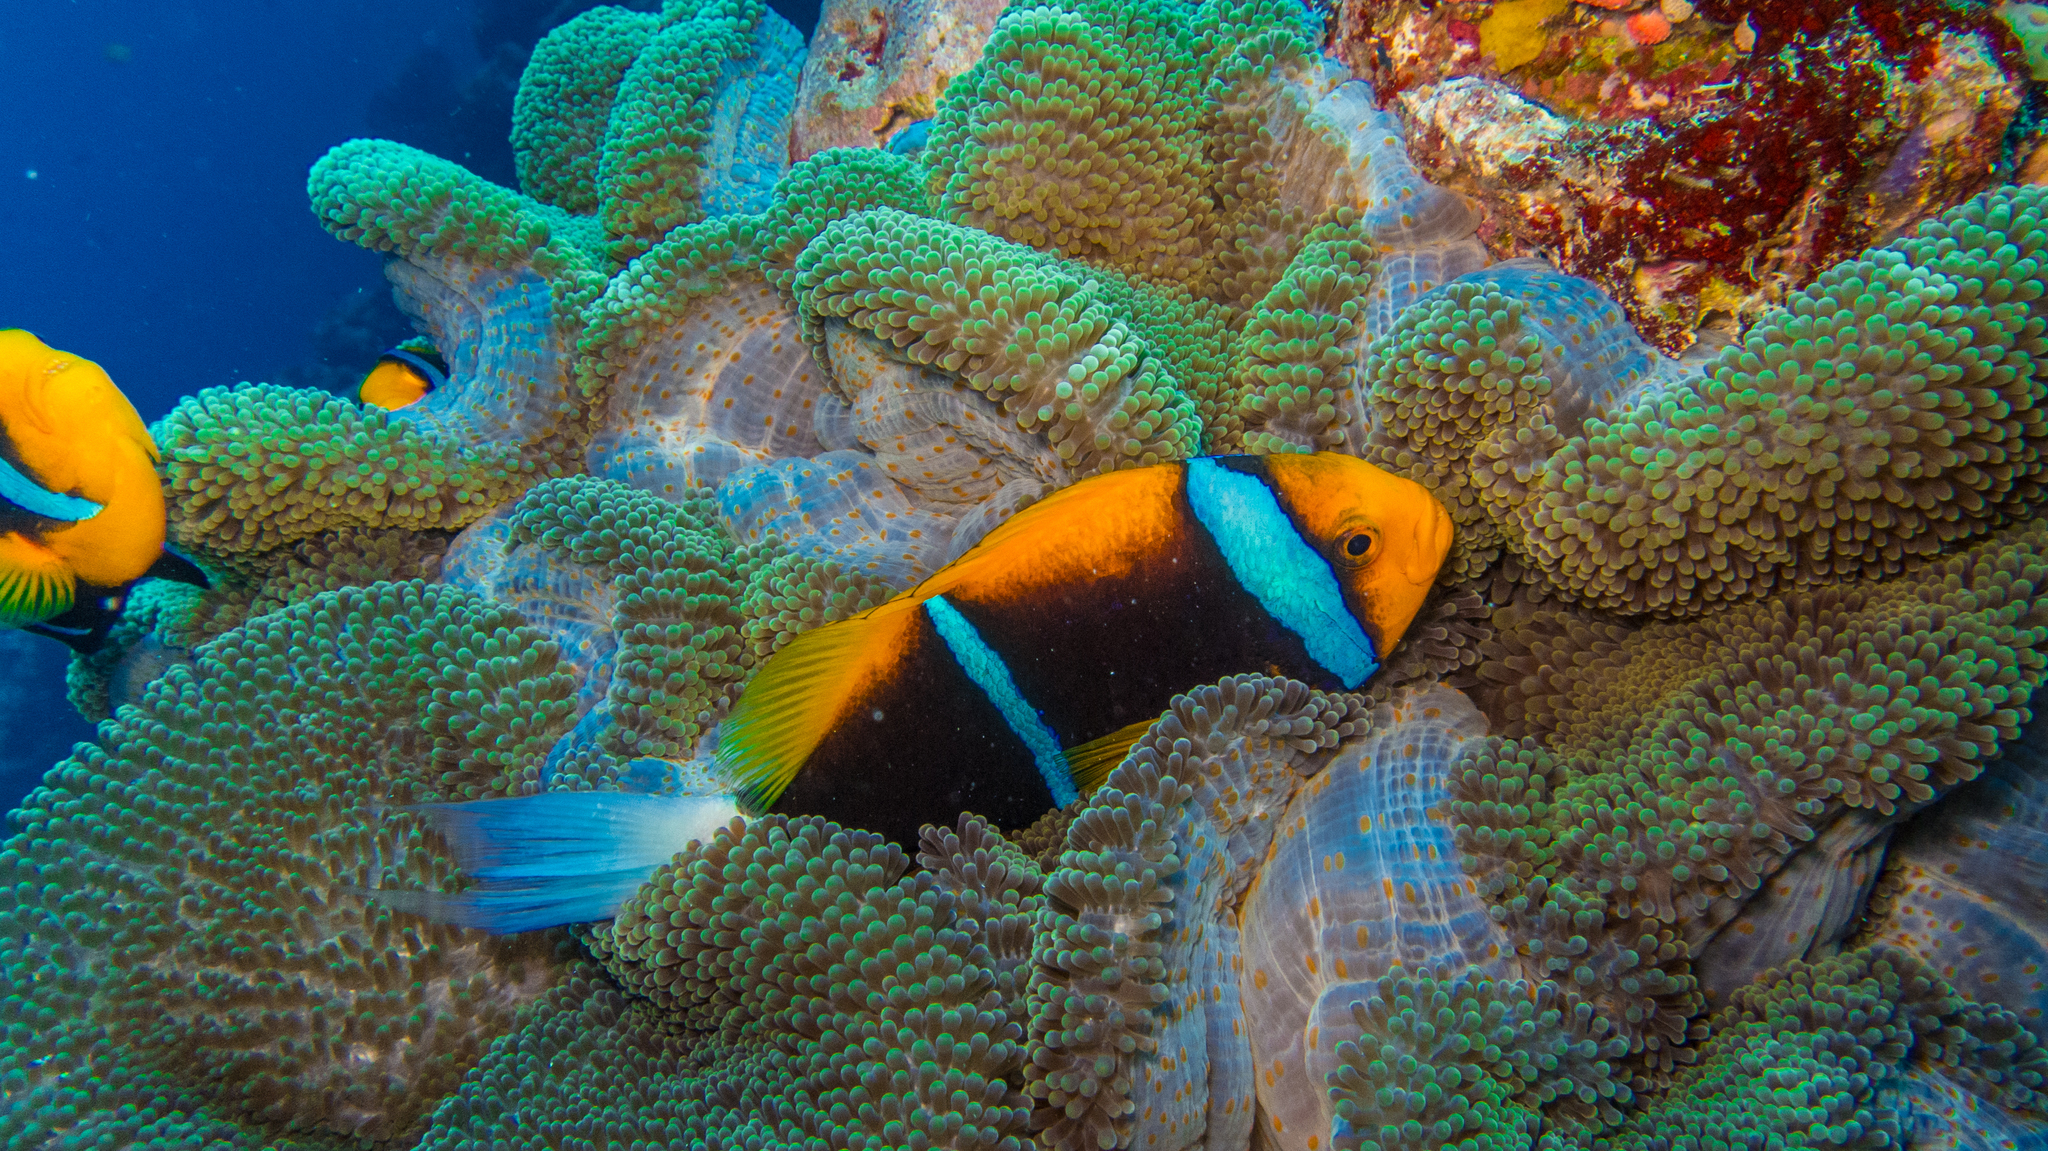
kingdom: Animalia
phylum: Chordata
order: Perciformes
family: Pomacentridae
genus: Amphiprion
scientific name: Amphiprion chrysopterus
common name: Orange-fin anemonefish
